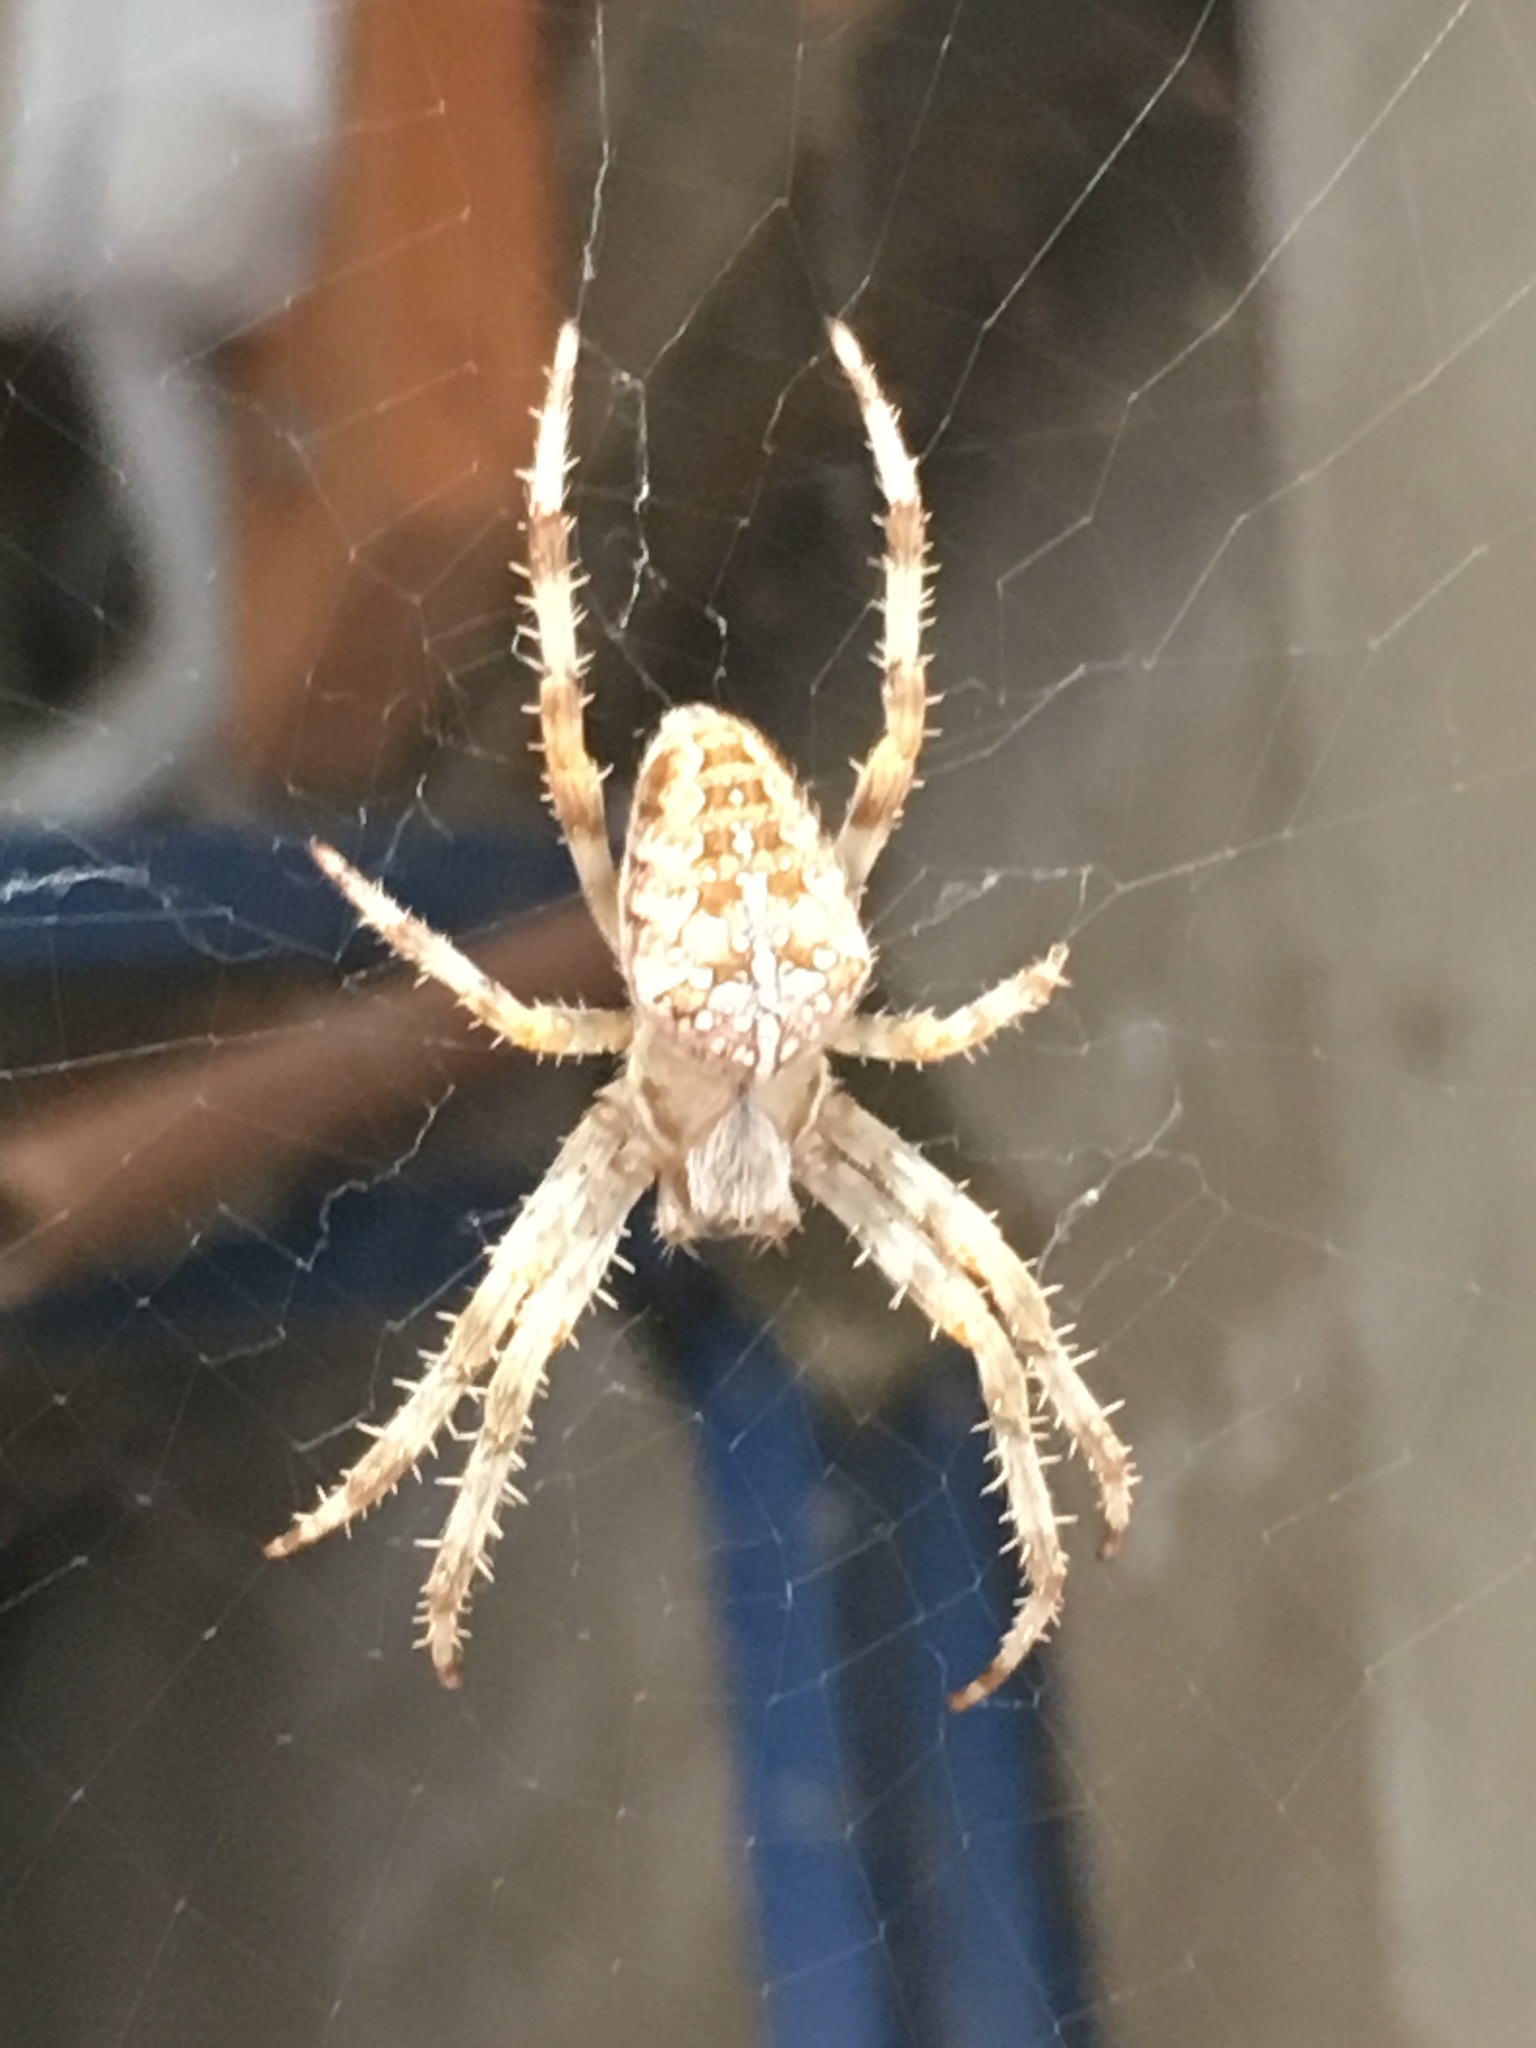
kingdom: Animalia
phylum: Arthropoda
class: Arachnida
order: Araneae
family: Araneidae
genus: Araneus
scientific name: Araneus diadematus
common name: Cross orbweaver
